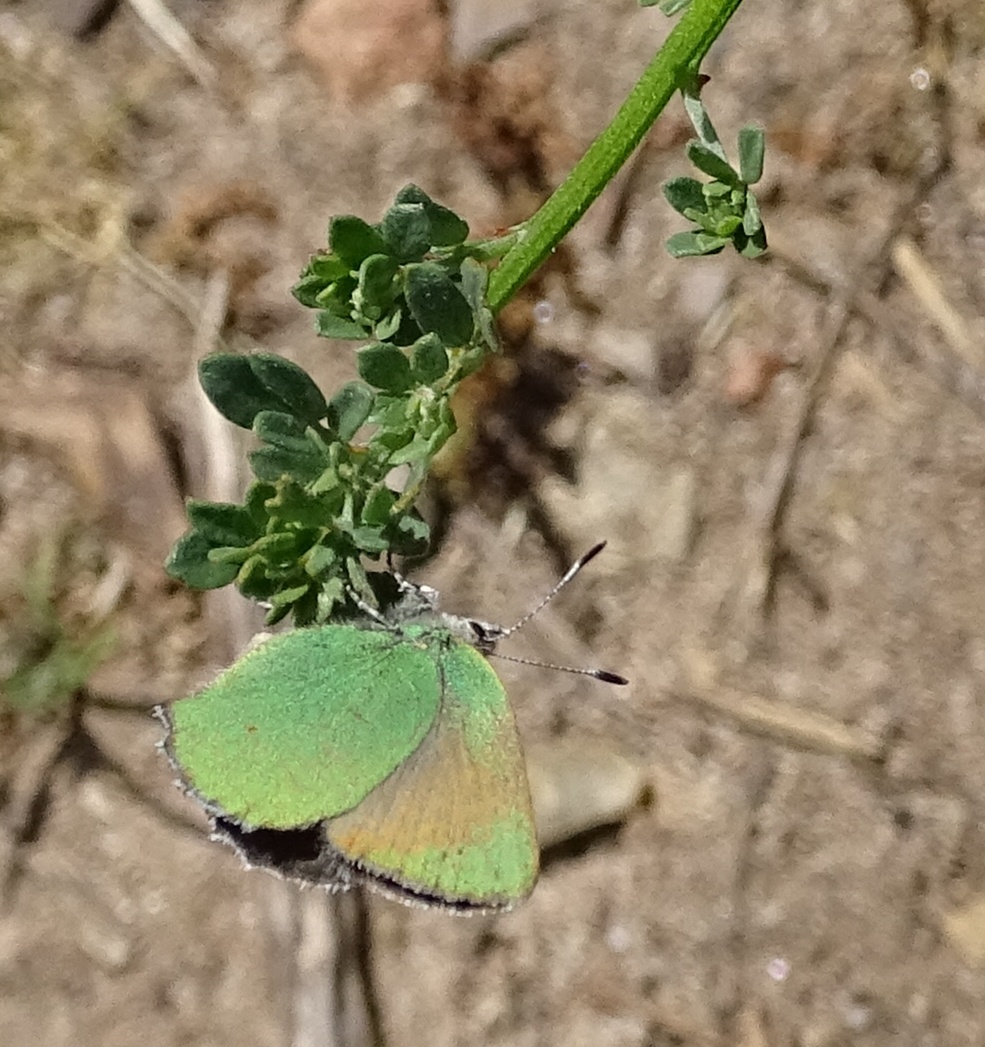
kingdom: Animalia
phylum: Arthropoda
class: Insecta
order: Lepidoptera
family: Lycaenidae
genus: Callophrys
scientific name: Callophrys dumetorum
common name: Bramble hairstreak
